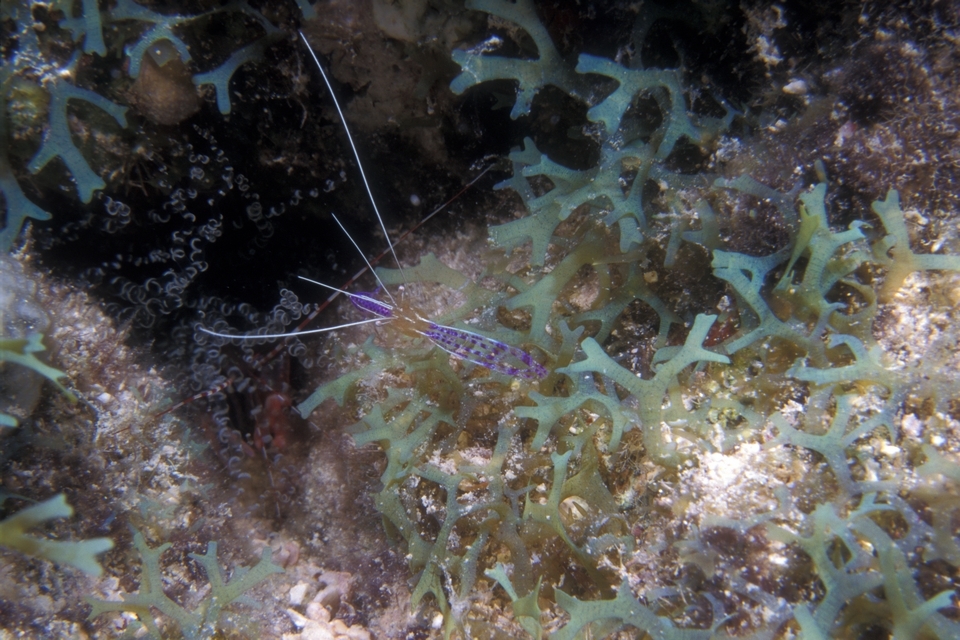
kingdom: Animalia
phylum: Arthropoda
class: Malacostraca
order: Decapoda
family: Palaemonidae
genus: Ancylomenes
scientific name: Ancylomenes pedersoni
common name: Pederson's cleaning shrimp
